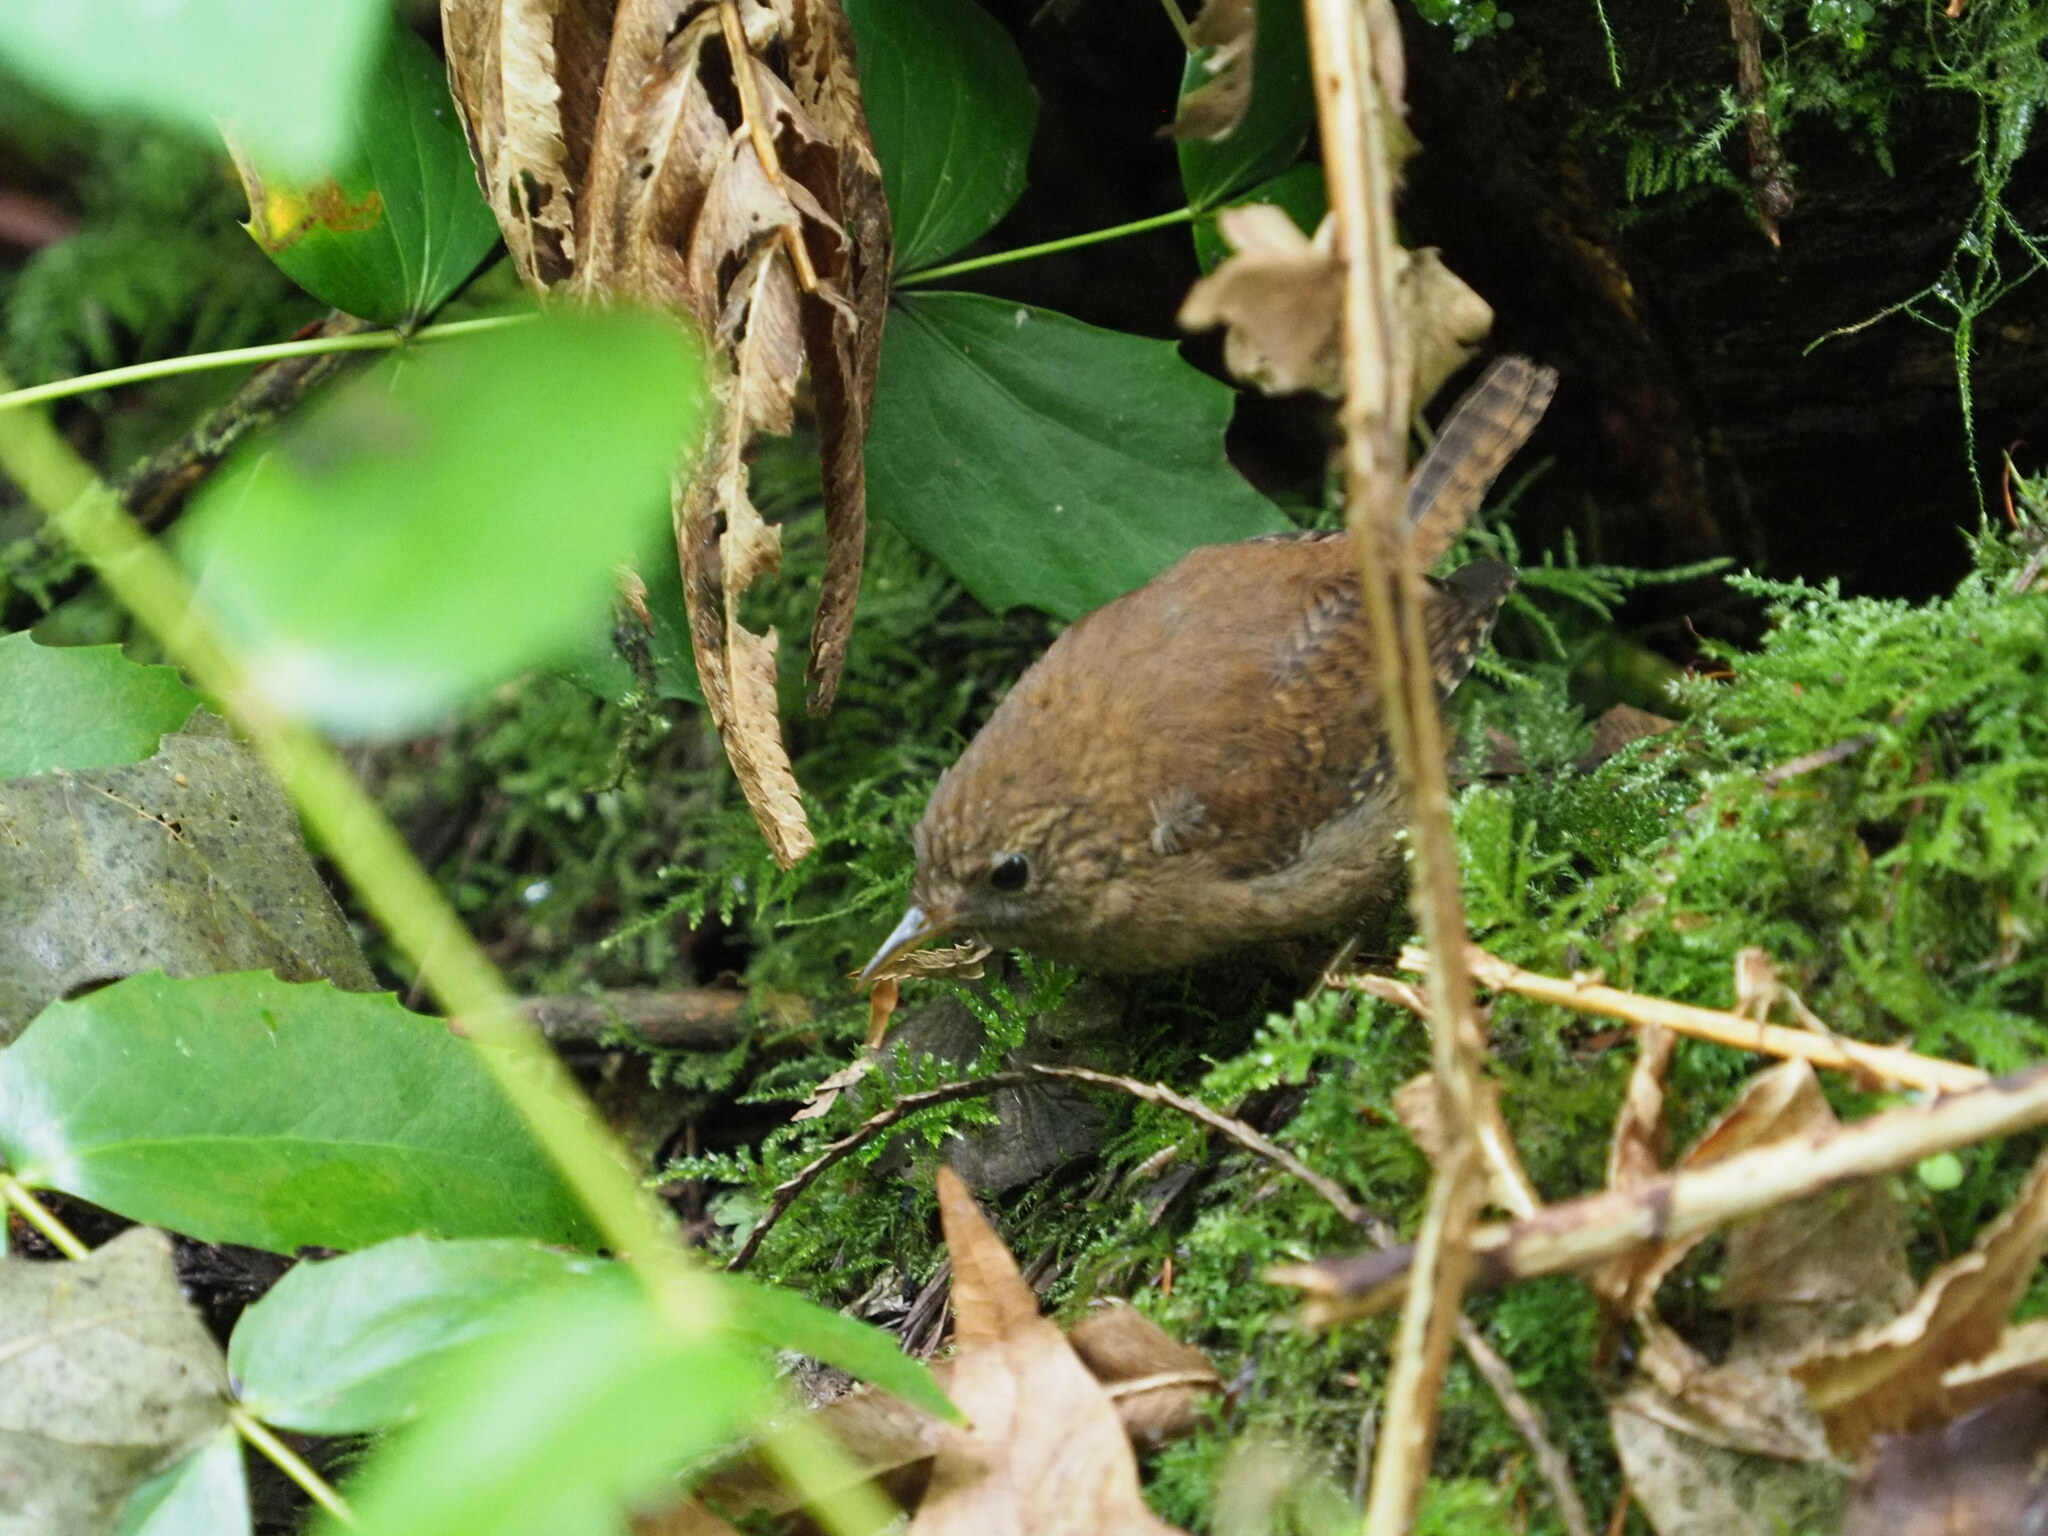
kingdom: Animalia
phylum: Chordata
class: Aves
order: Passeriformes
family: Troglodytidae
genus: Troglodytes
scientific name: Troglodytes pacificus
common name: Pacific wren
